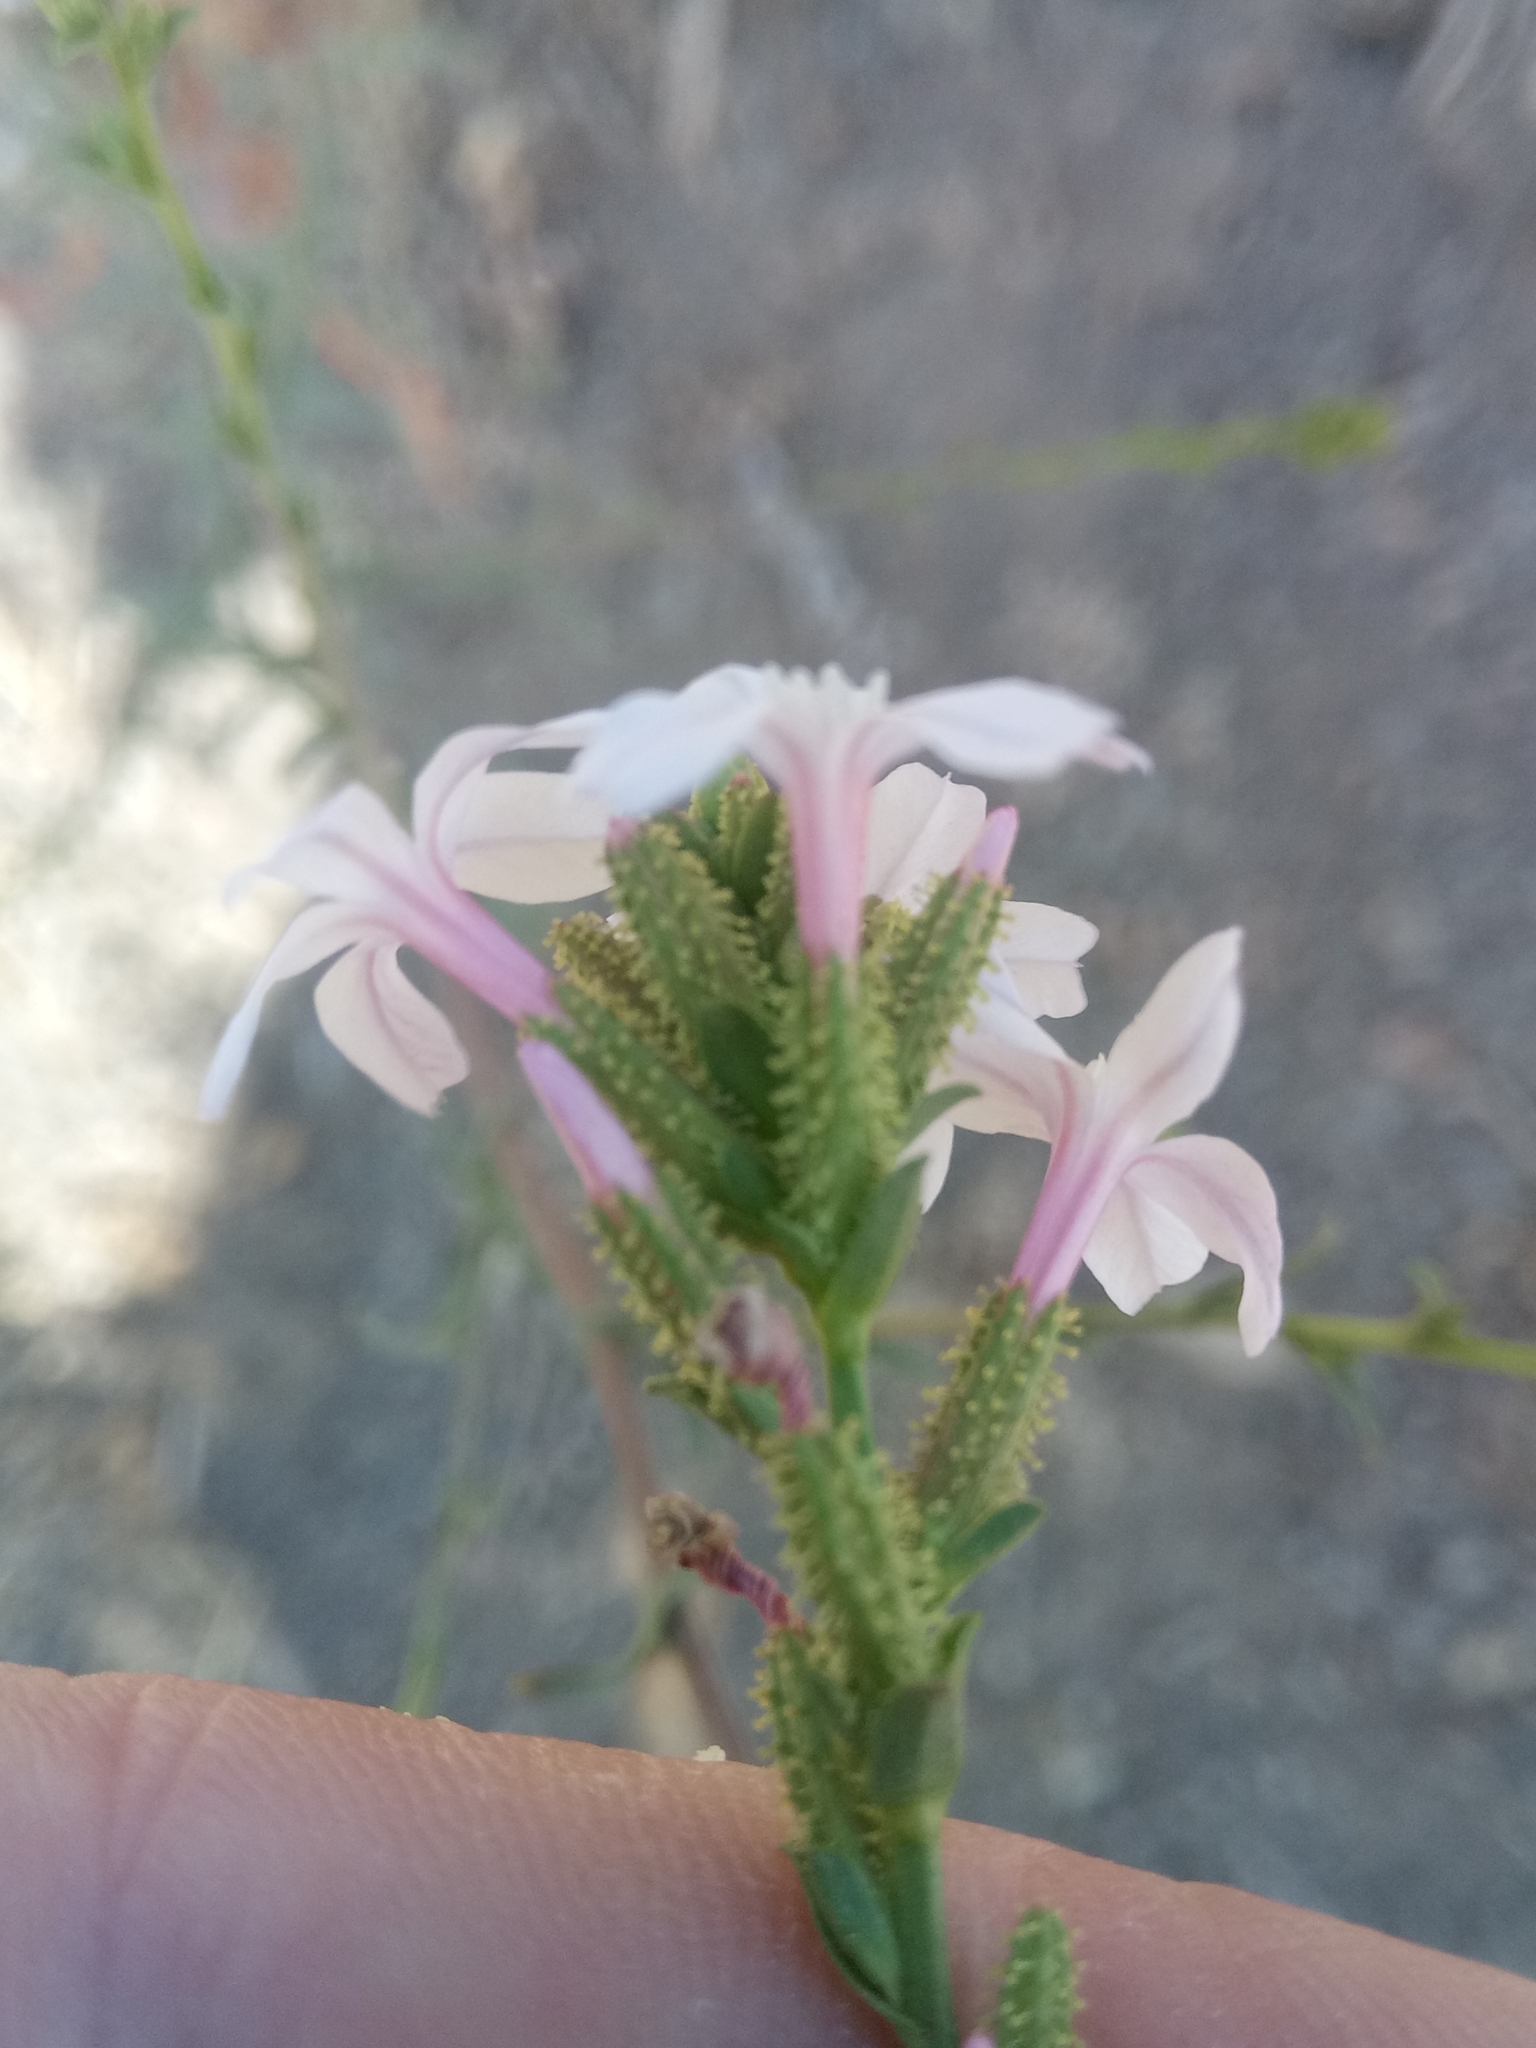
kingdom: Plantae
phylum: Tracheophyta
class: Magnoliopsida
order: Caryophyllales
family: Plumbaginaceae
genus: Plumbago
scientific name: Plumbago europaea
